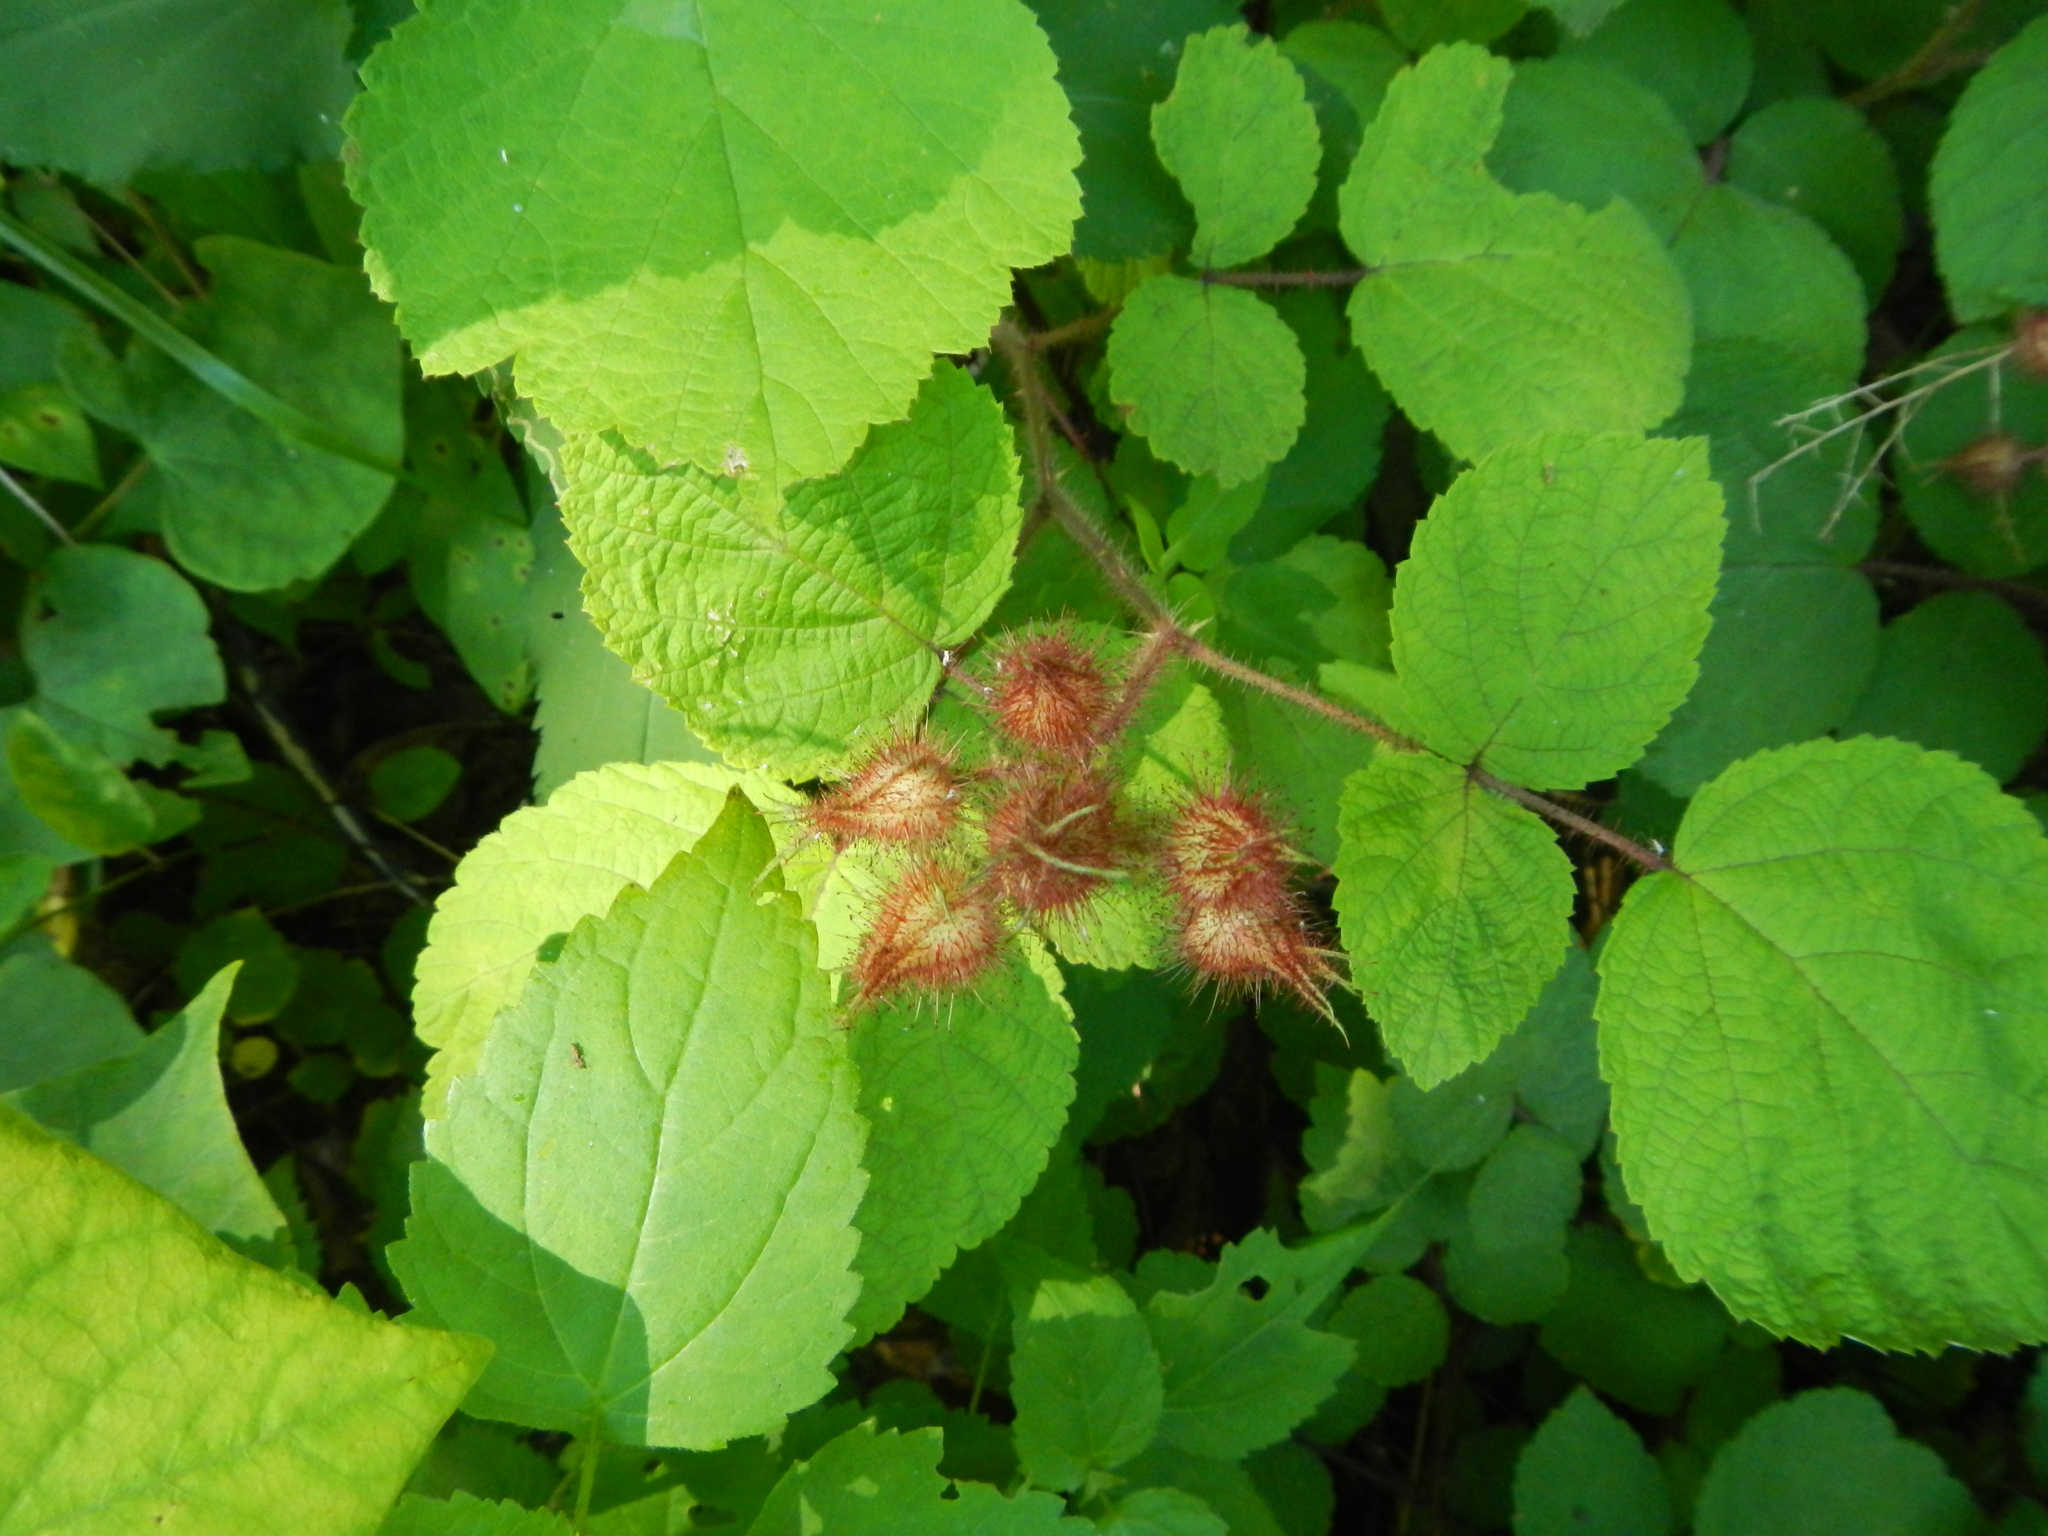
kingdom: Plantae
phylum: Tracheophyta
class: Magnoliopsida
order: Rosales
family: Rosaceae
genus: Rubus
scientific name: Rubus phoenicolasius
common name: Japanese wineberry
